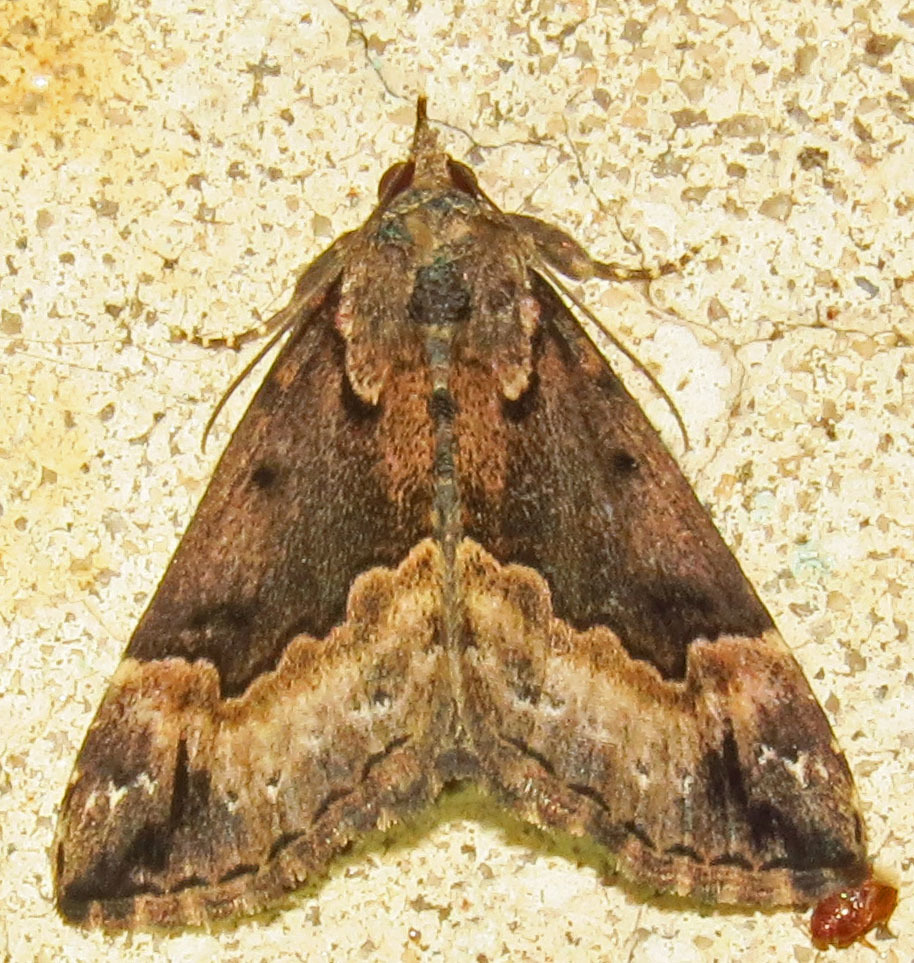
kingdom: Animalia
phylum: Arthropoda
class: Insecta
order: Lepidoptera
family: Erebidae
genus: Hypena
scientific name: Hypena baltimoralis
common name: Baltimore snout
